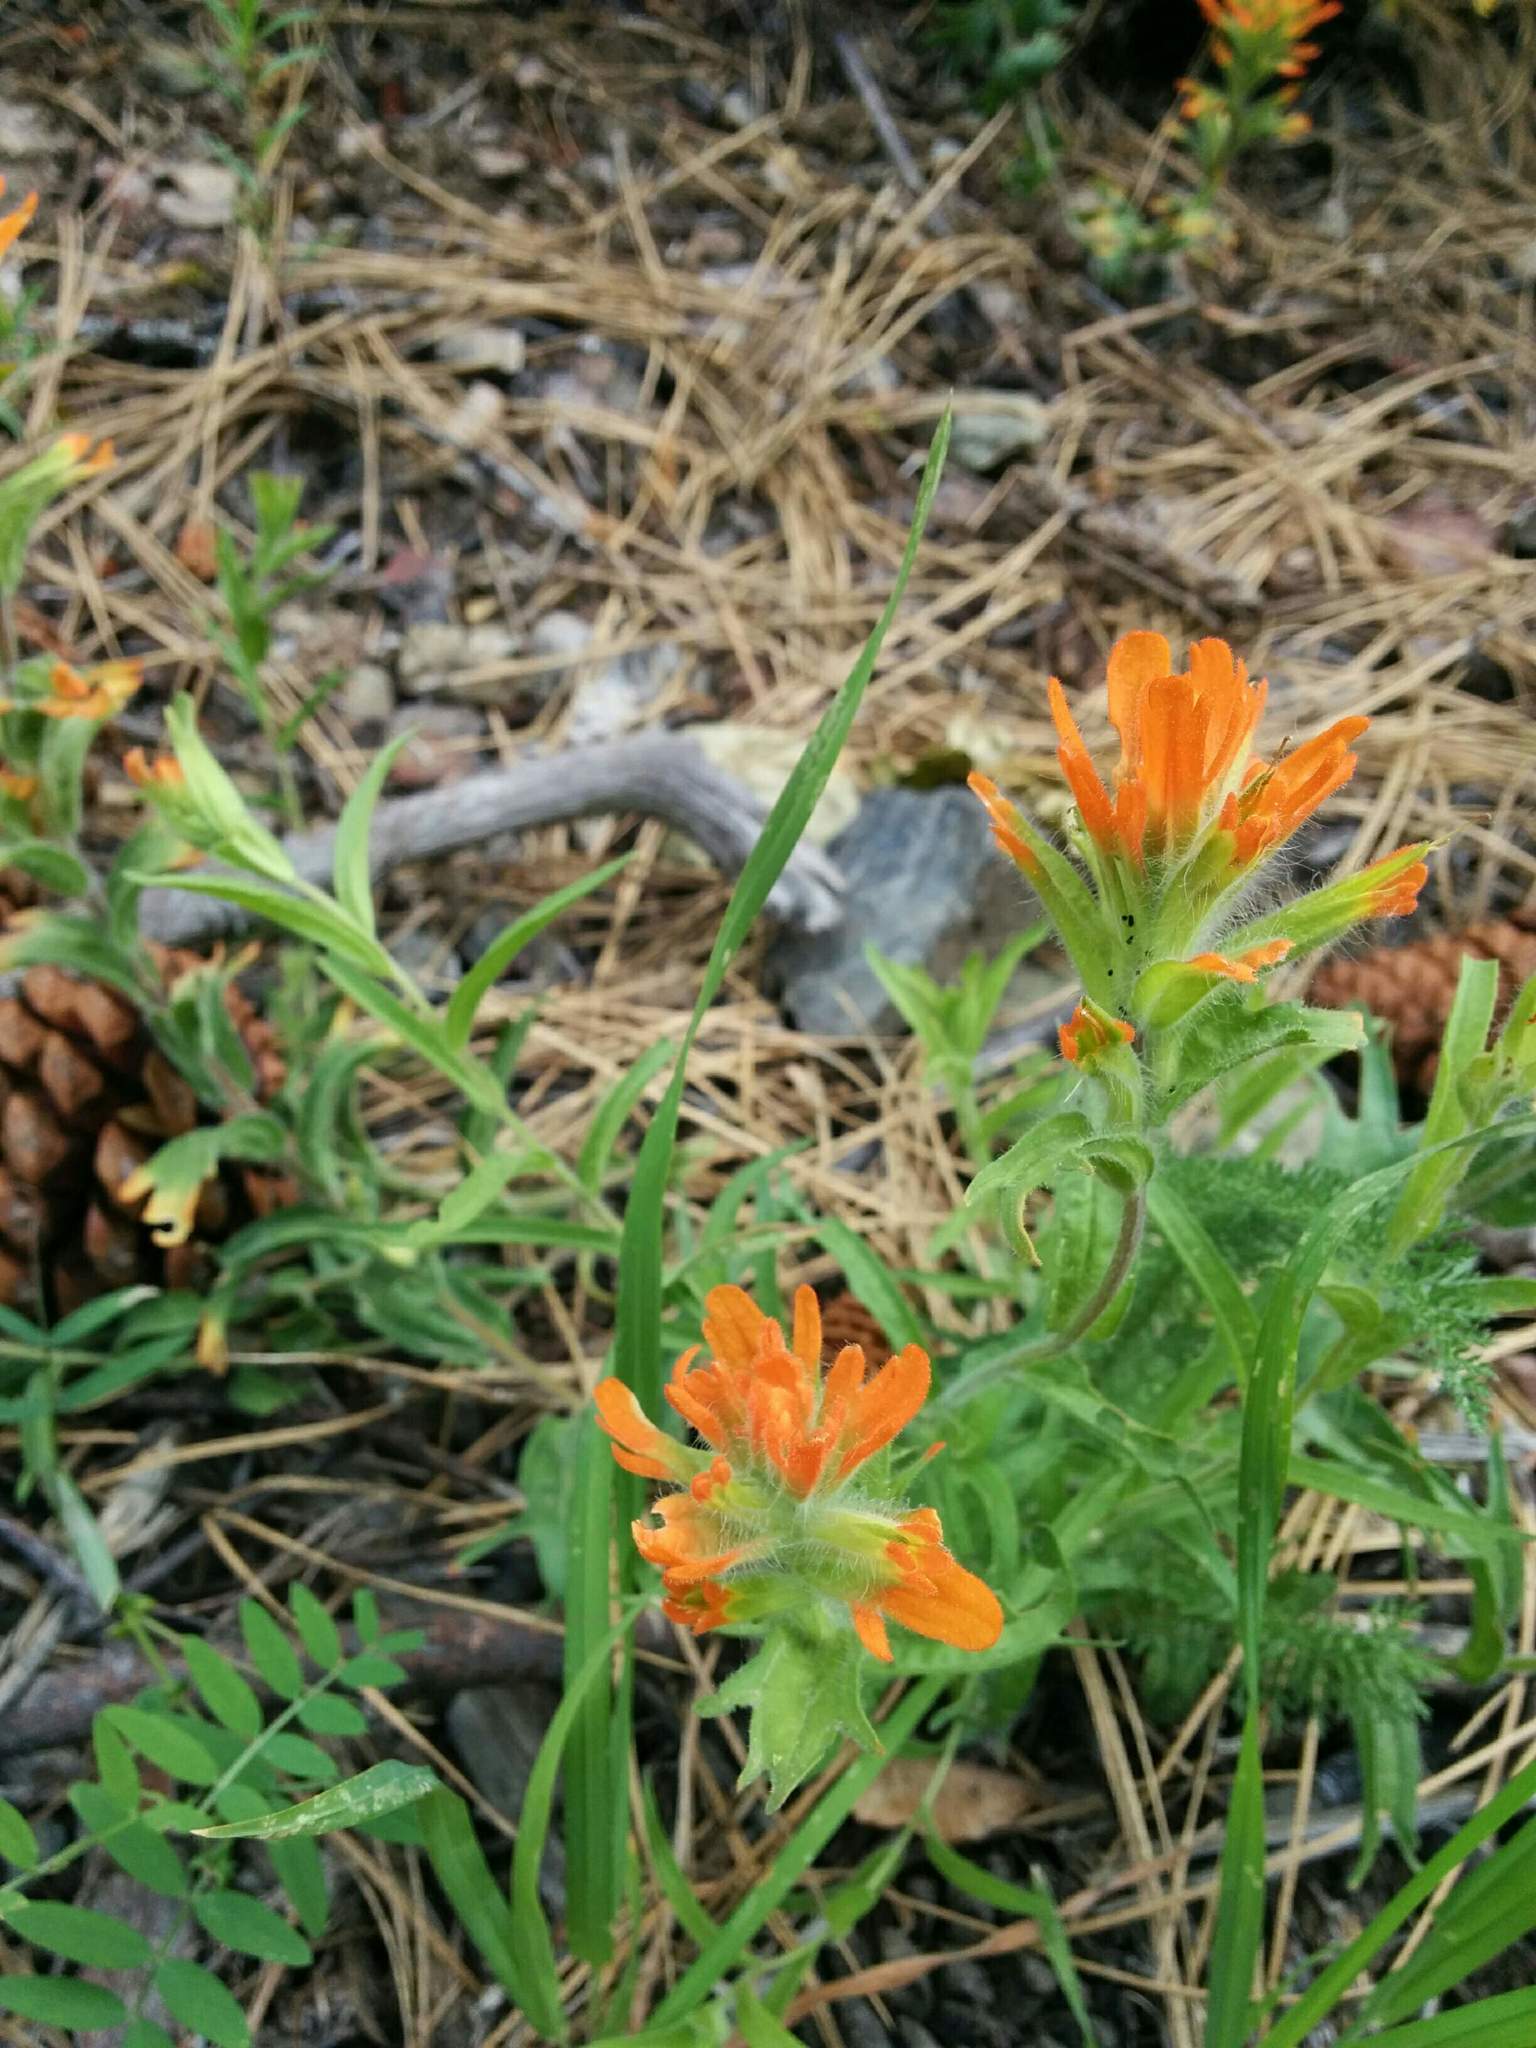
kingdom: Plantae
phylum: Tracheophyta
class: Magnoliopsida
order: Lamiales
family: Orobanchaceae
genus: Castilleja
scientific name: Castilleja hispida
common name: Bristly paintbrush
